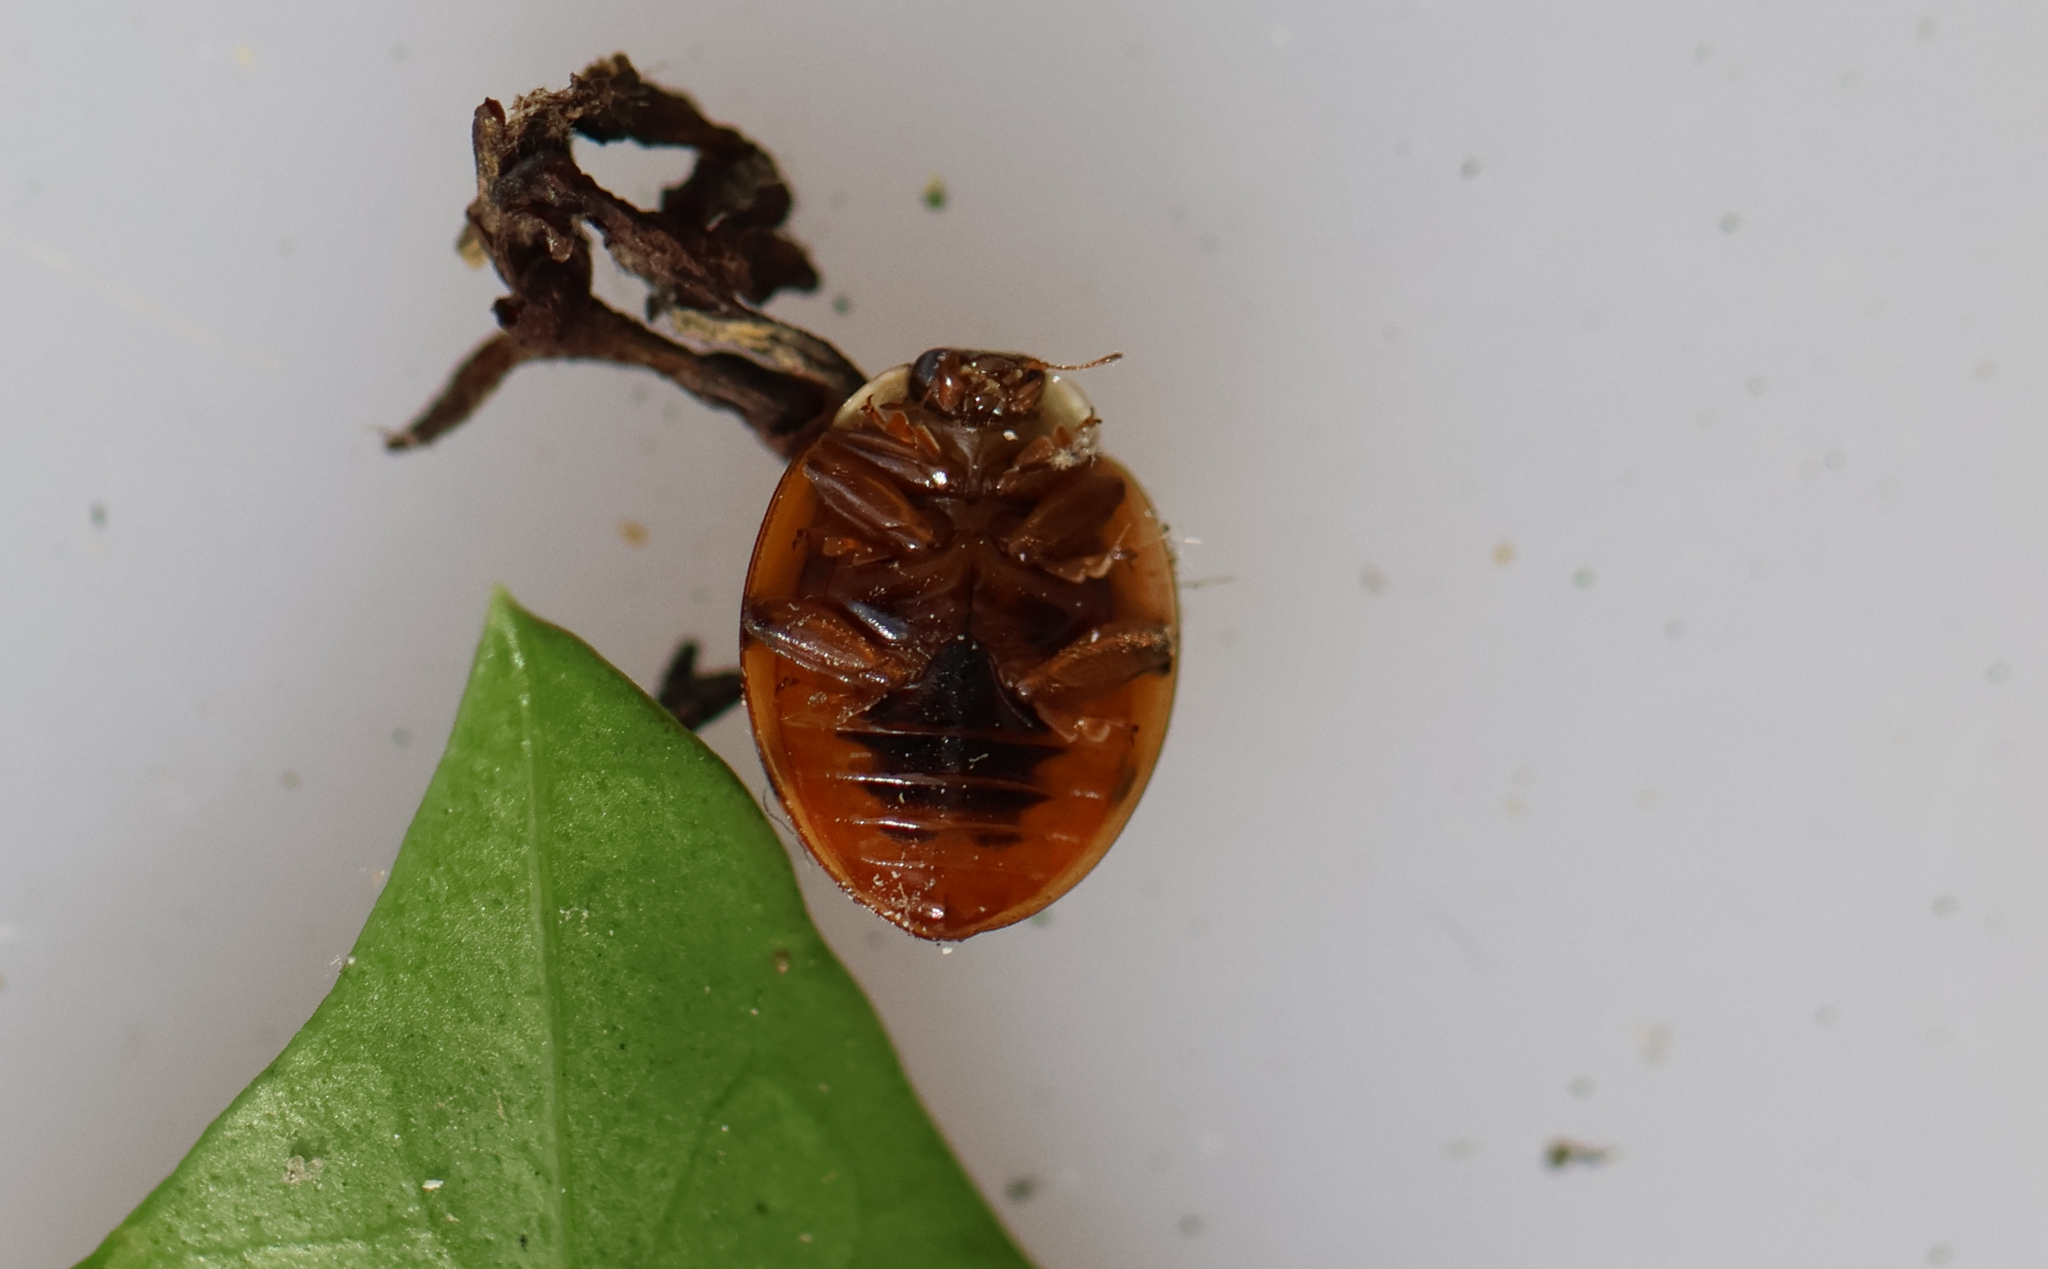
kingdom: Animalia
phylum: Arthropoda
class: Insecta
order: Coleoptera
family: Coccinellidae
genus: Harmonia
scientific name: Harmonia axyridis
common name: Harlequin ladybird
